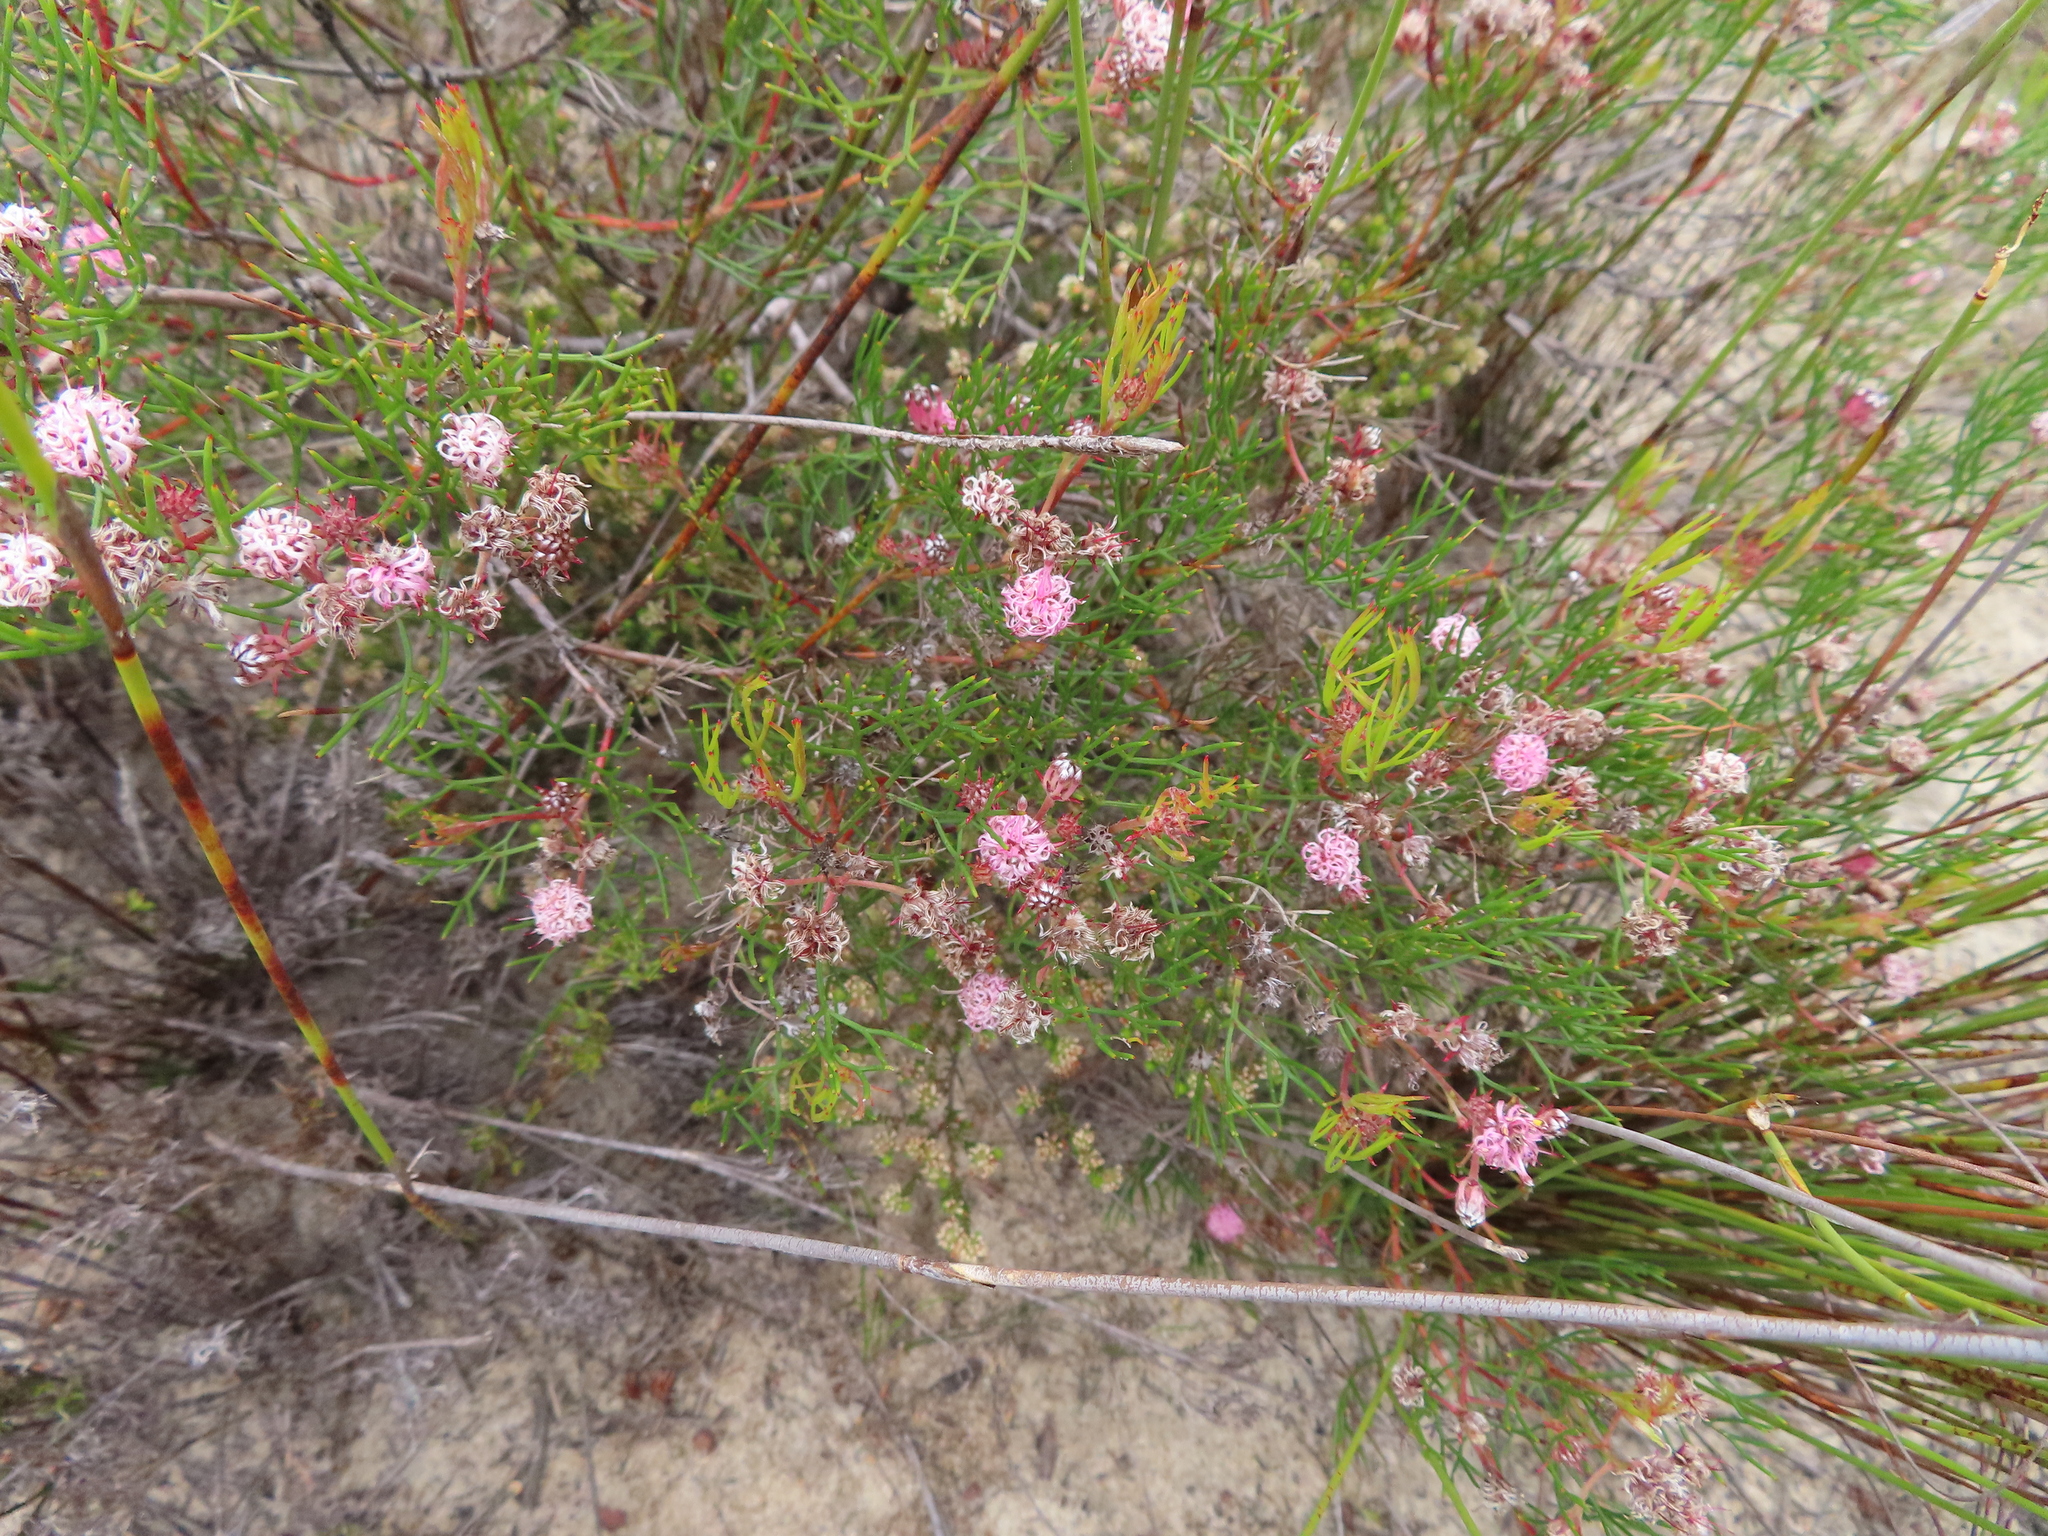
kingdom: Plantae
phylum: Tracheophyta
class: Magnoliopsida
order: Proteales
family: Proteaceae
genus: Serruria
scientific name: Serruria fasciflora
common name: Common pin spiderhead
